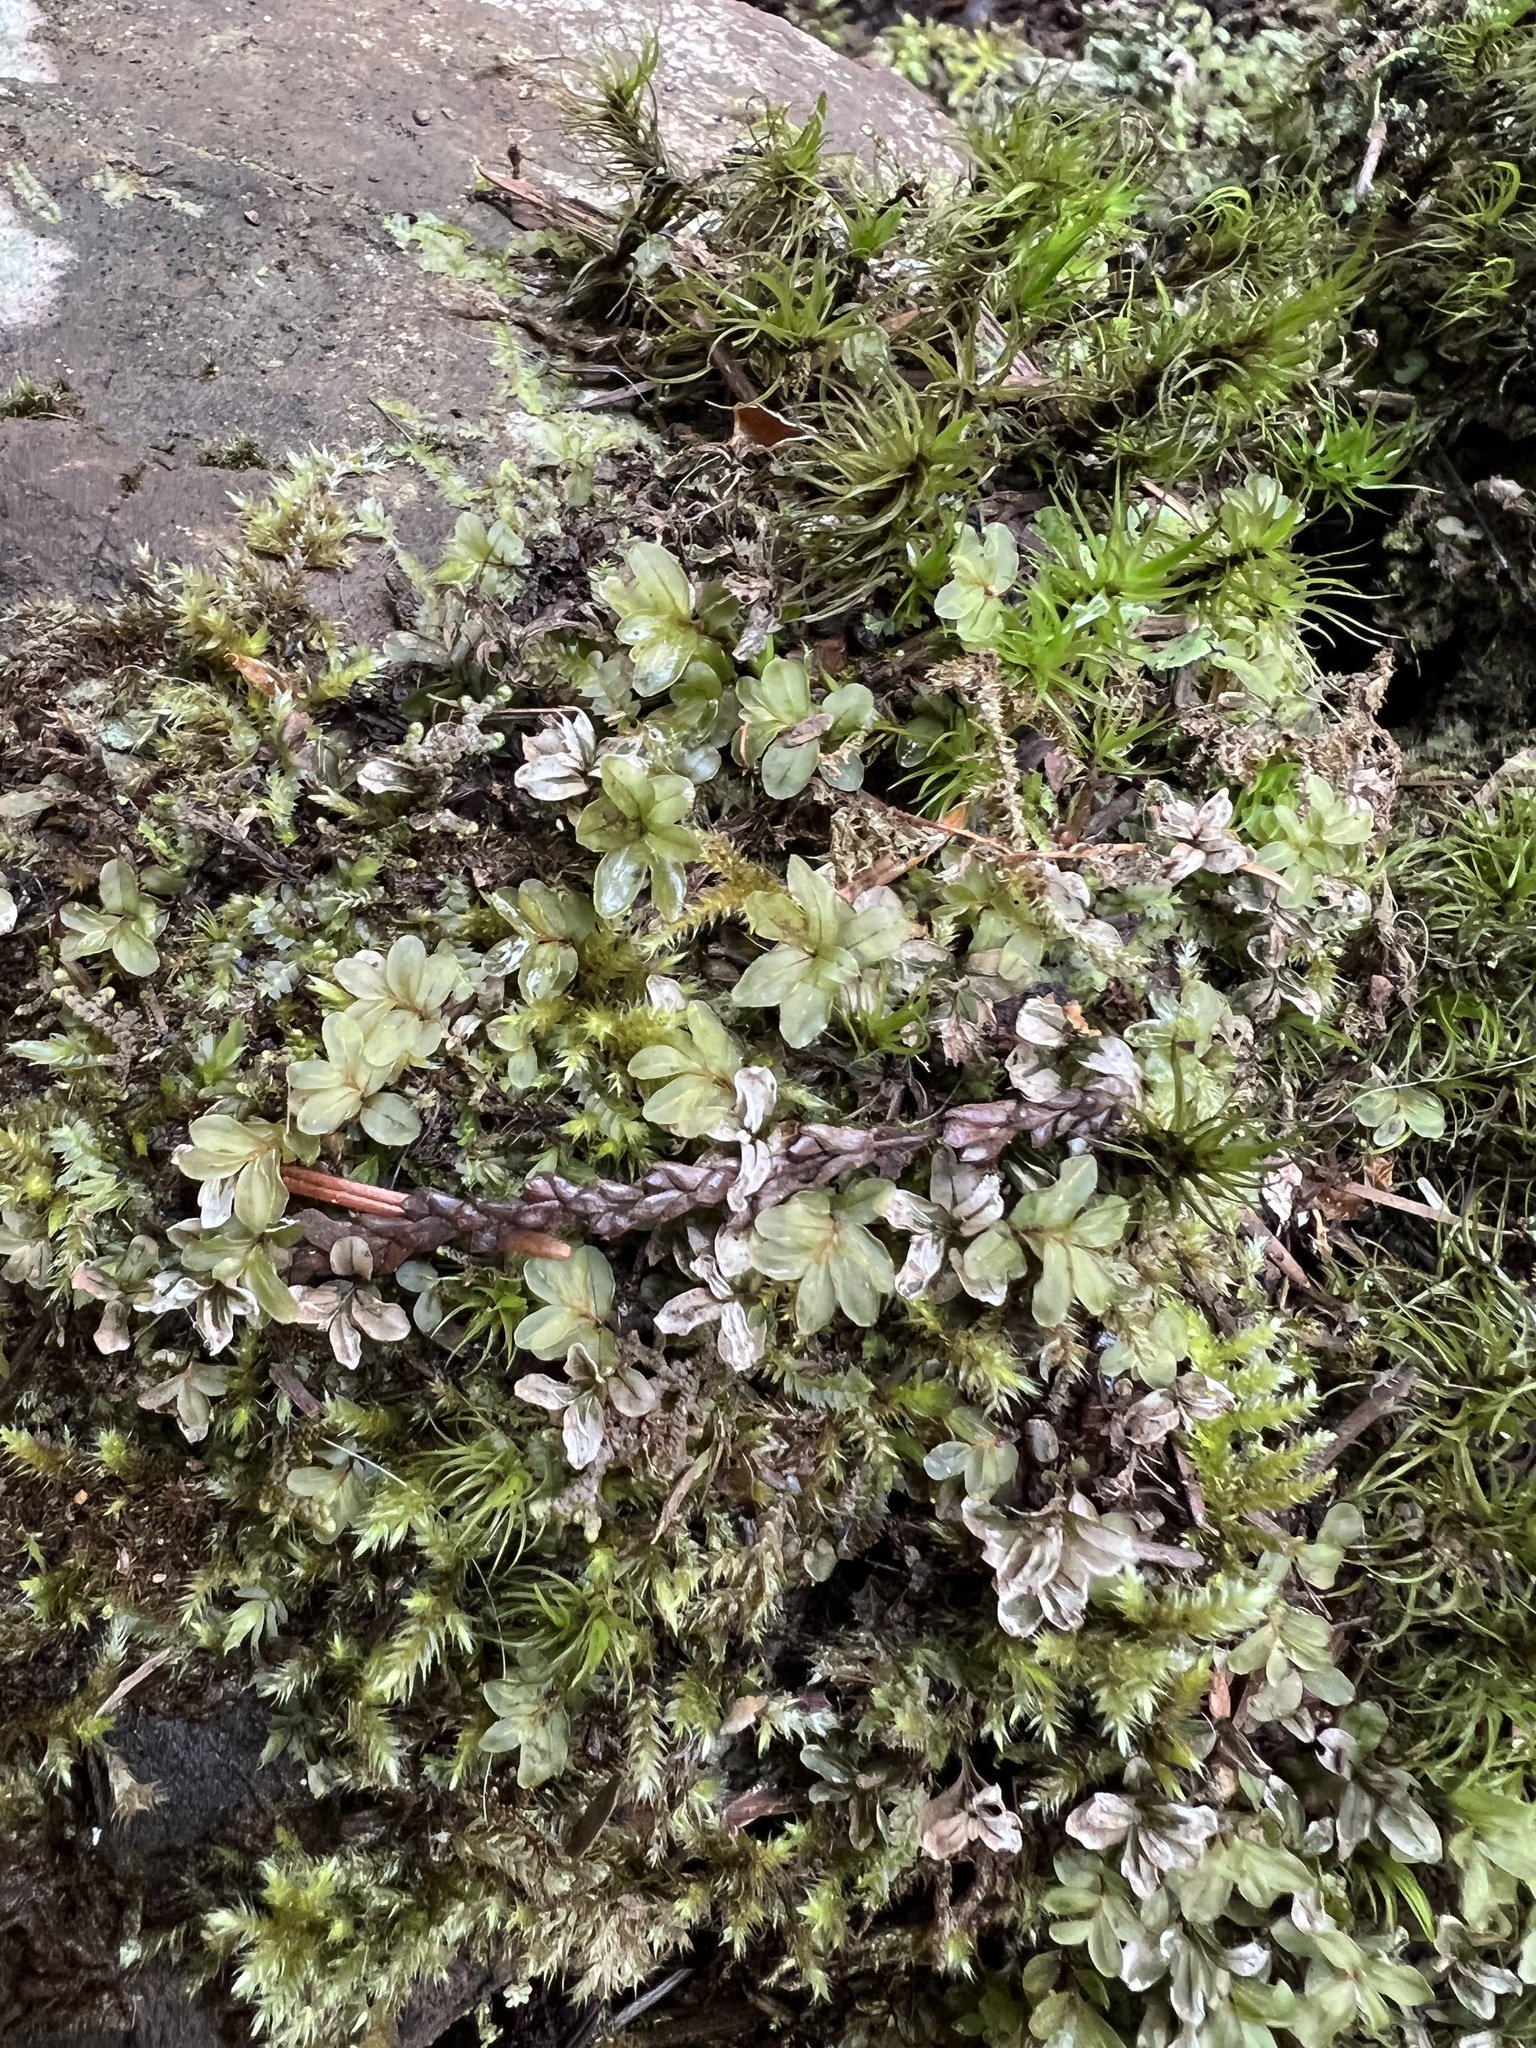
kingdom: Plantae
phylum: Bryophyta
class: Bryopsida
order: Bryales
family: Mniaceae
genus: Rhizomnium
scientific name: Rhizomnium glabrescens
